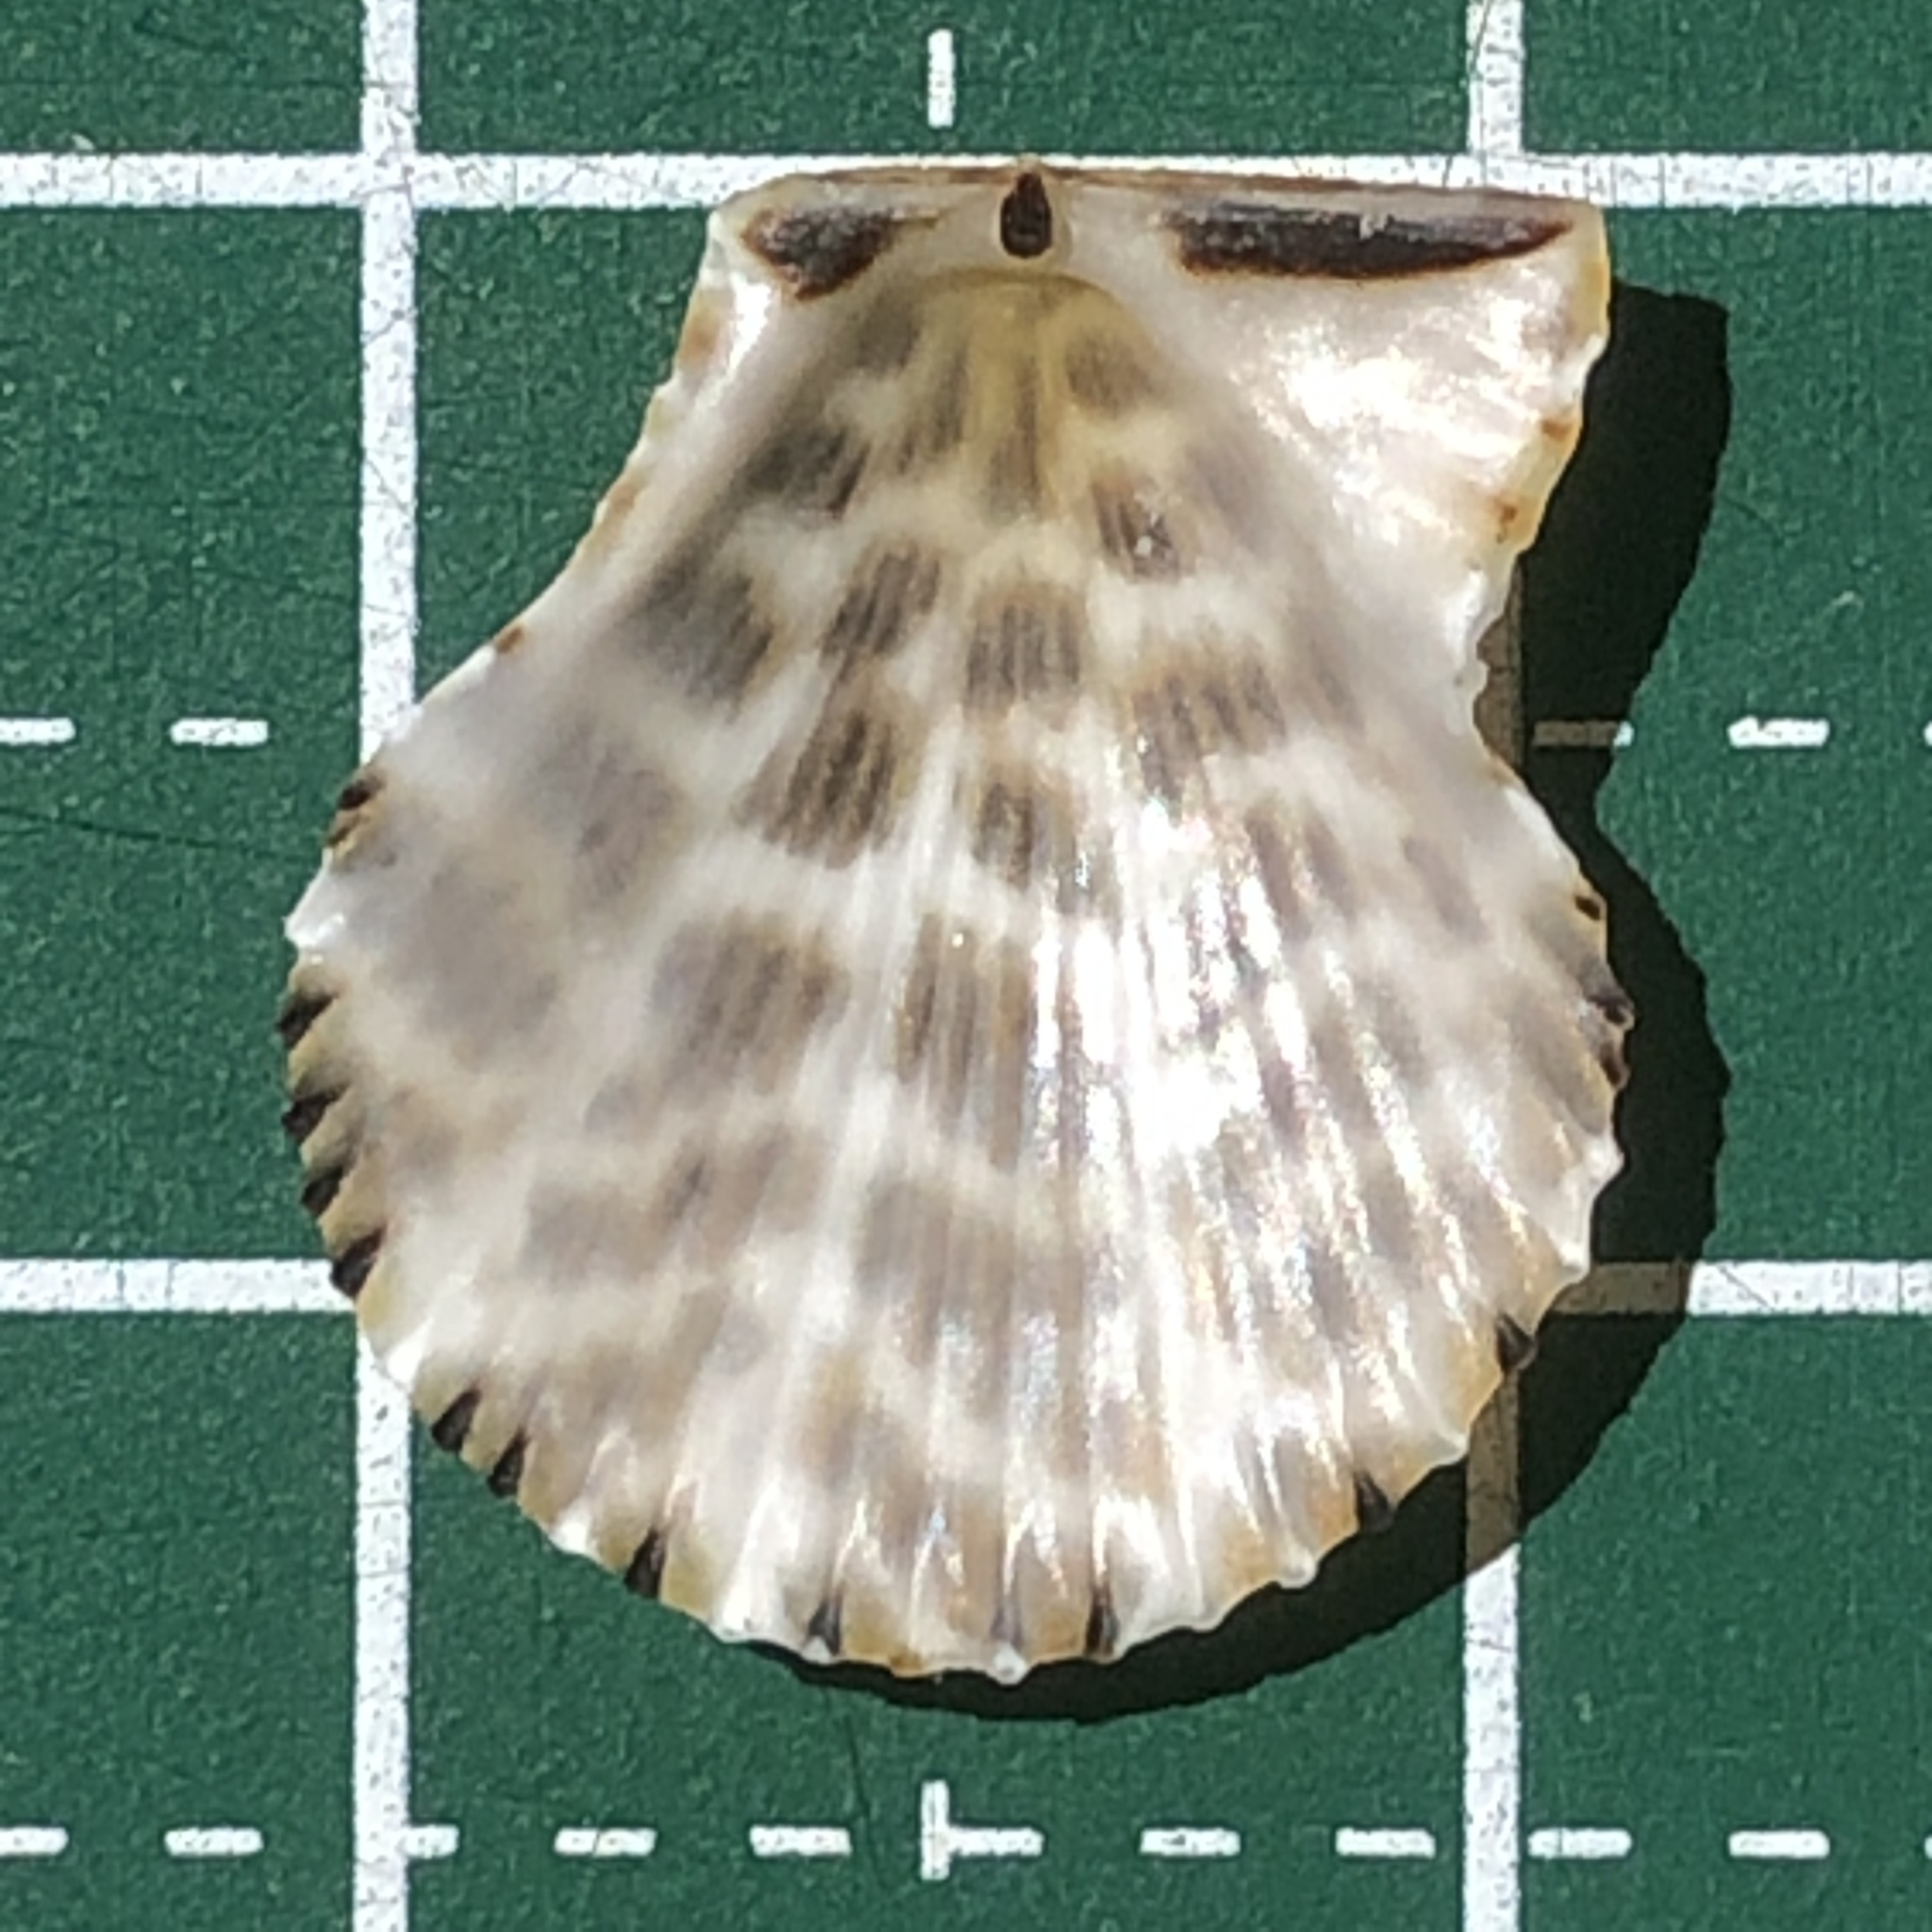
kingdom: Animalia
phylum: Mollusca
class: Bivalvia
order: Pectinida
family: Pectinidae
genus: Mimachlamys
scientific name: Mimachlamys albolineata
